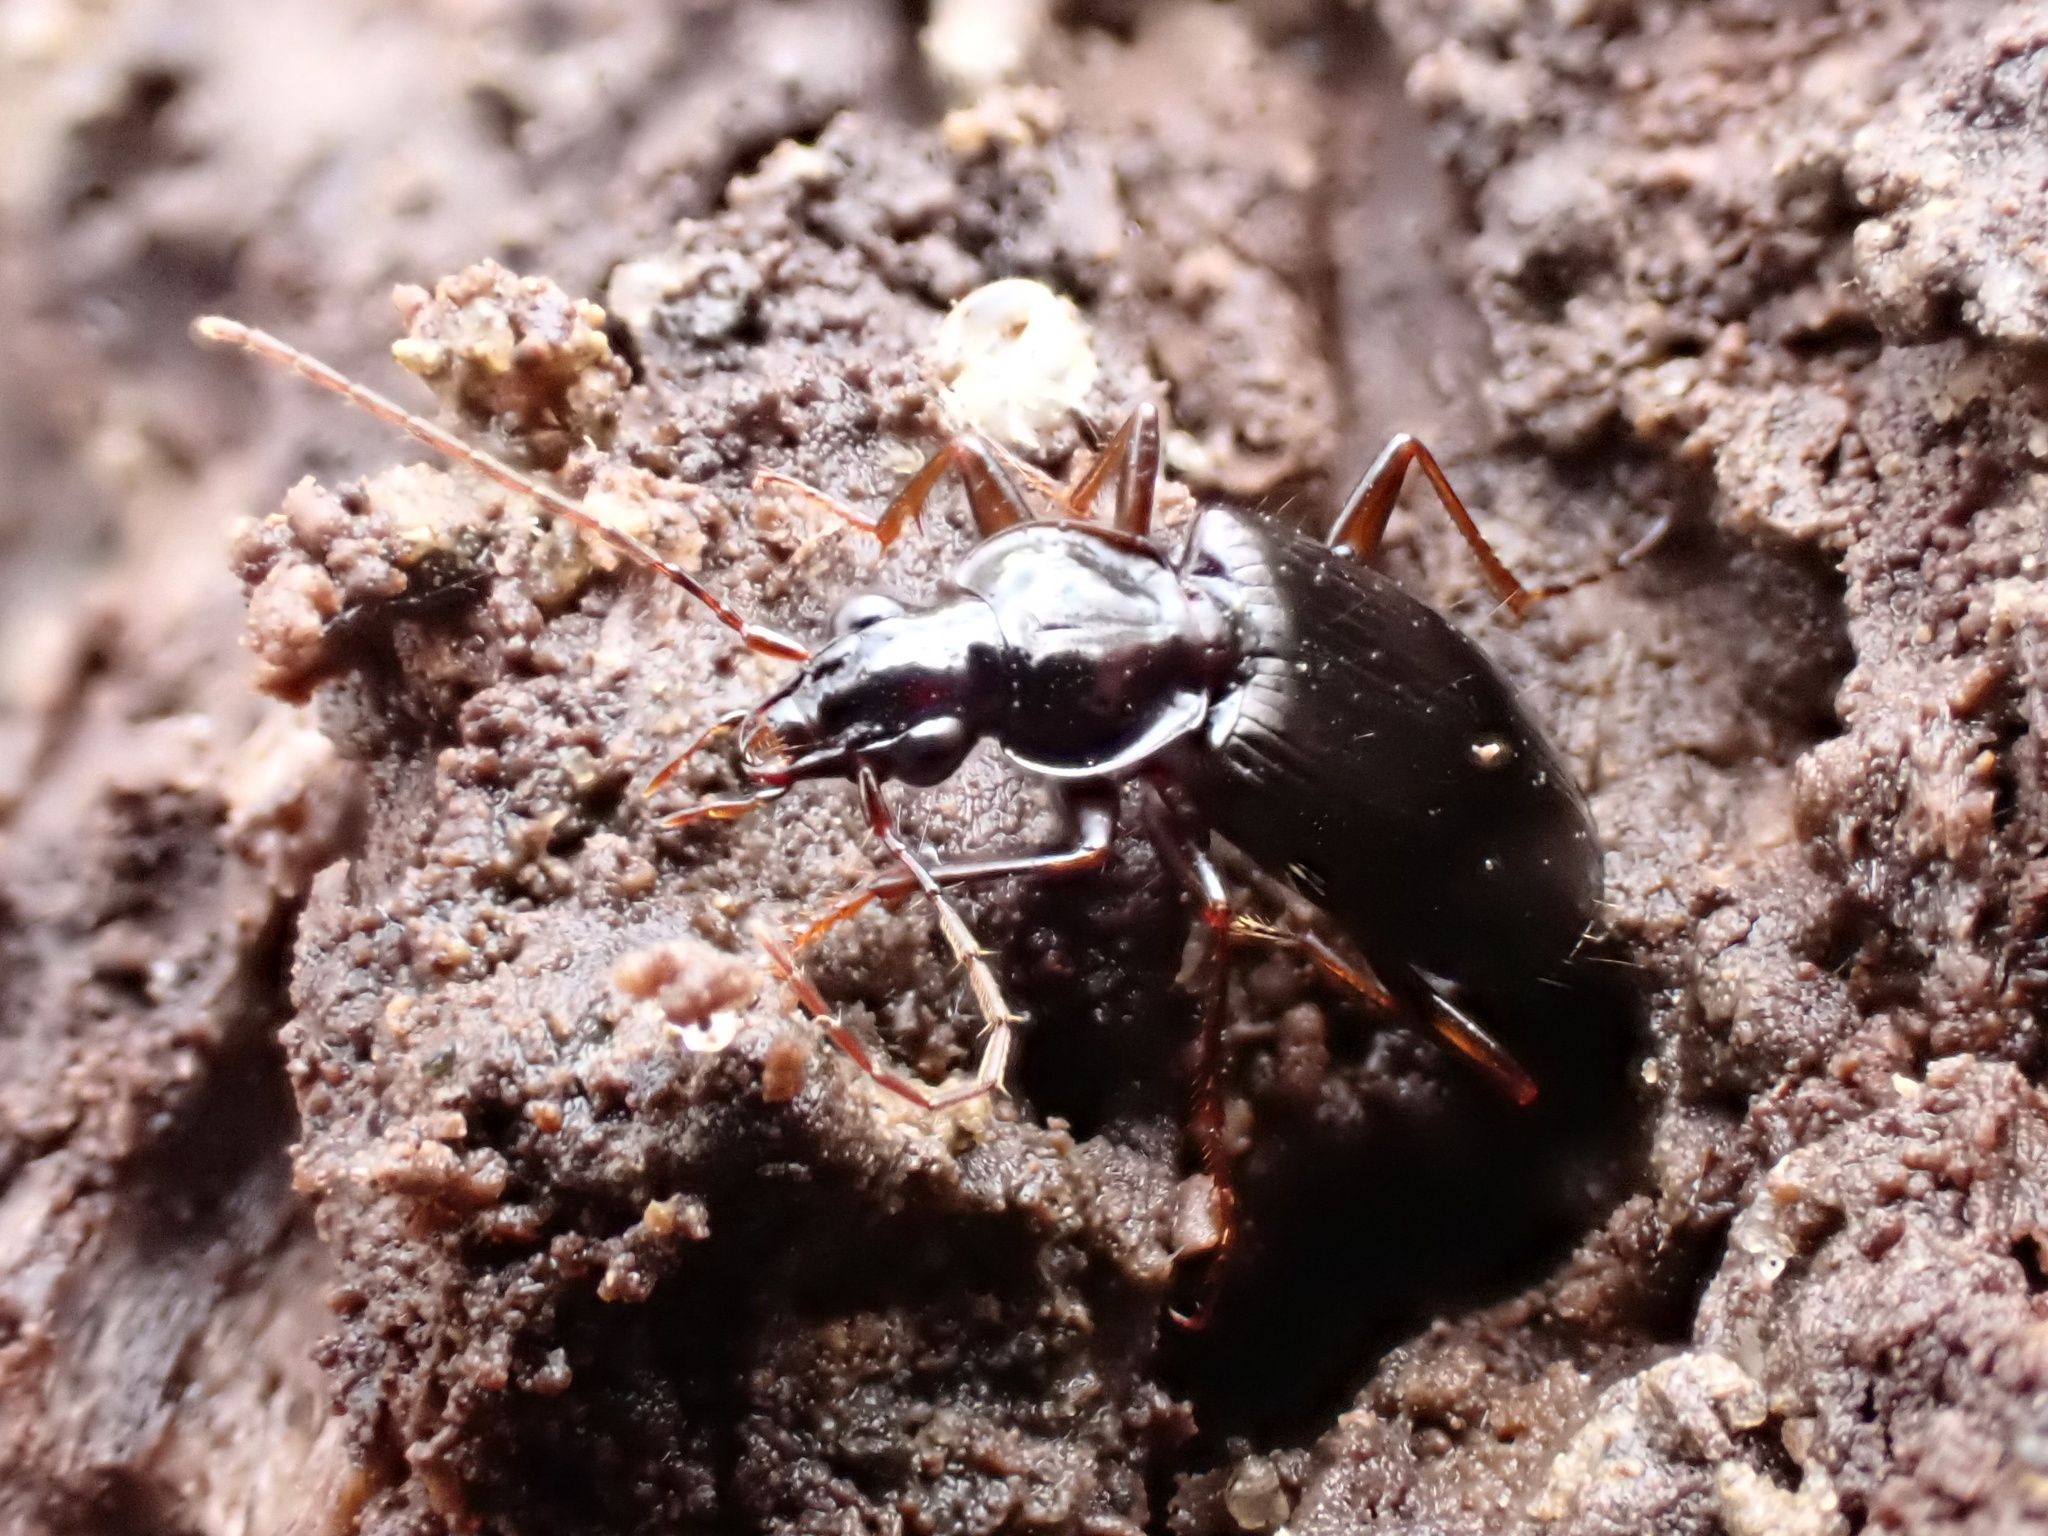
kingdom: Animalia
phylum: Arthropoda
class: Insecta
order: Coleoptera
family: Carabidae
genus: Platynus
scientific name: Platynus cincticollis
